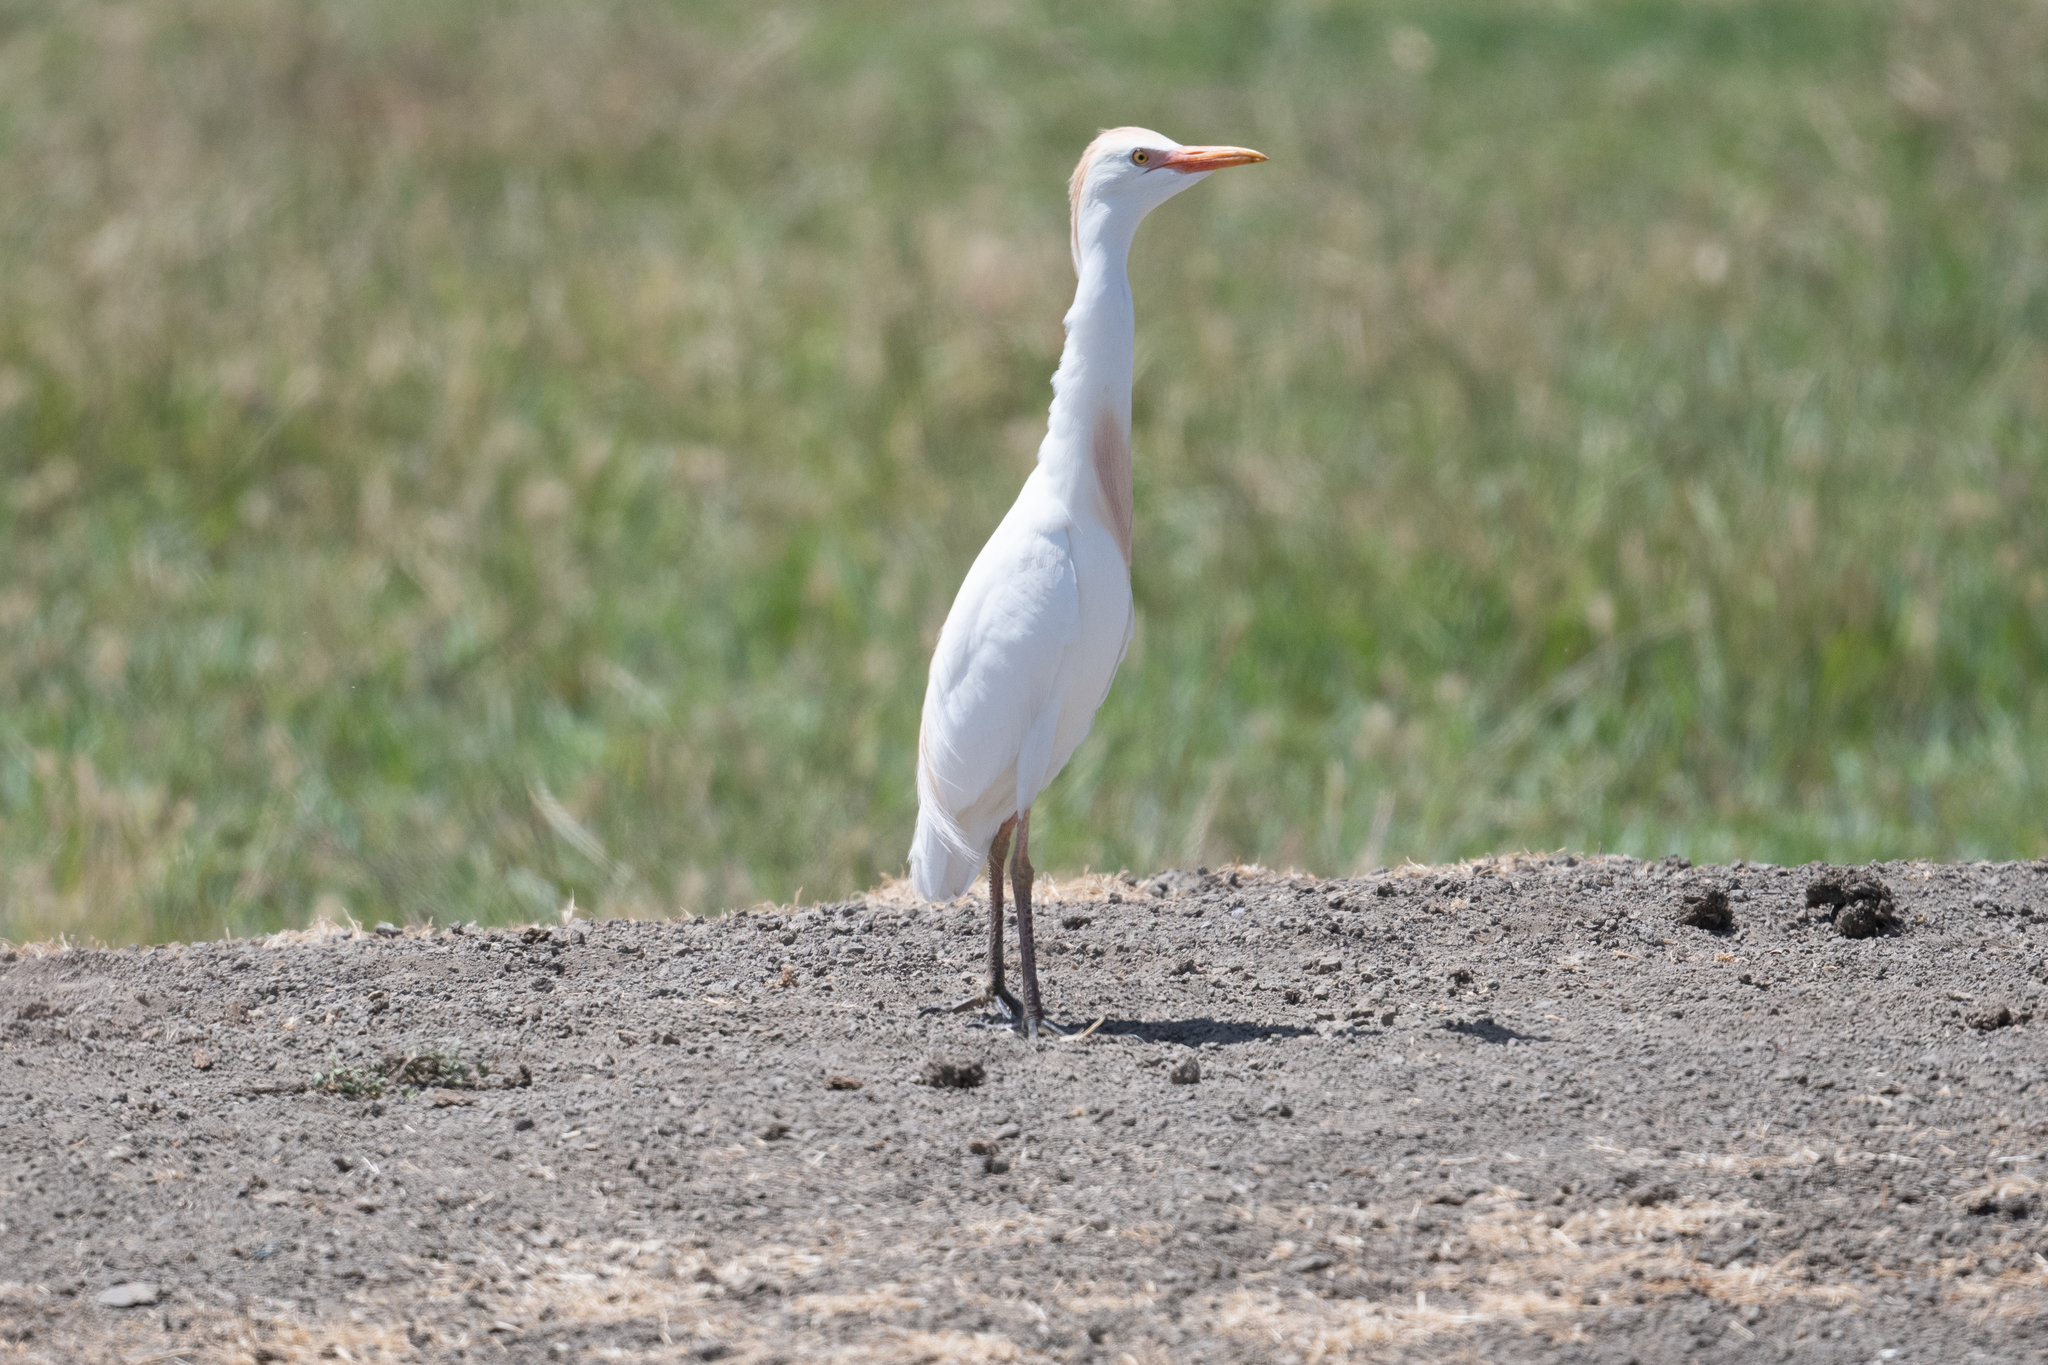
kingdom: Animalia
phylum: Chordata
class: Aves
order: Pelecaniformes
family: Ardeidae
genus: Bubulcus
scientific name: Bubulcus ibis
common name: Cattle egret
